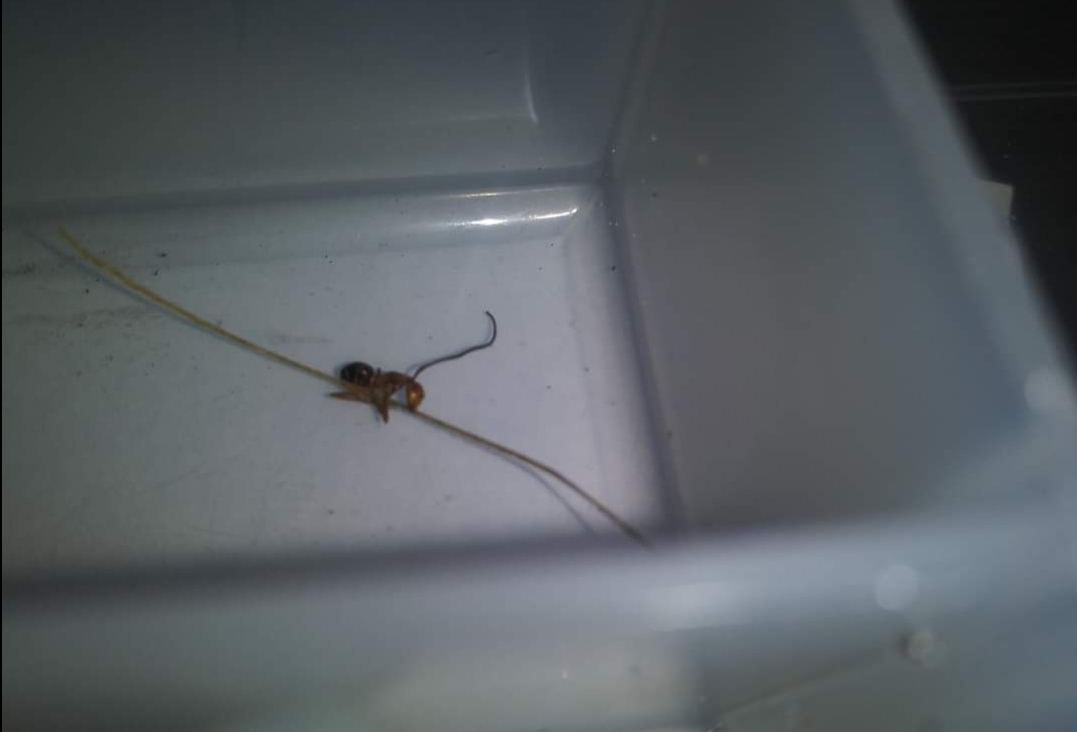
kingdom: Fungi
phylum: Ascomycota
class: Sordariomycetes
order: Hypocreales
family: Ophiocordycipitaceae
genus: Ophiocordyceps
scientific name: Ophiocordyceps camponoti-floridani
